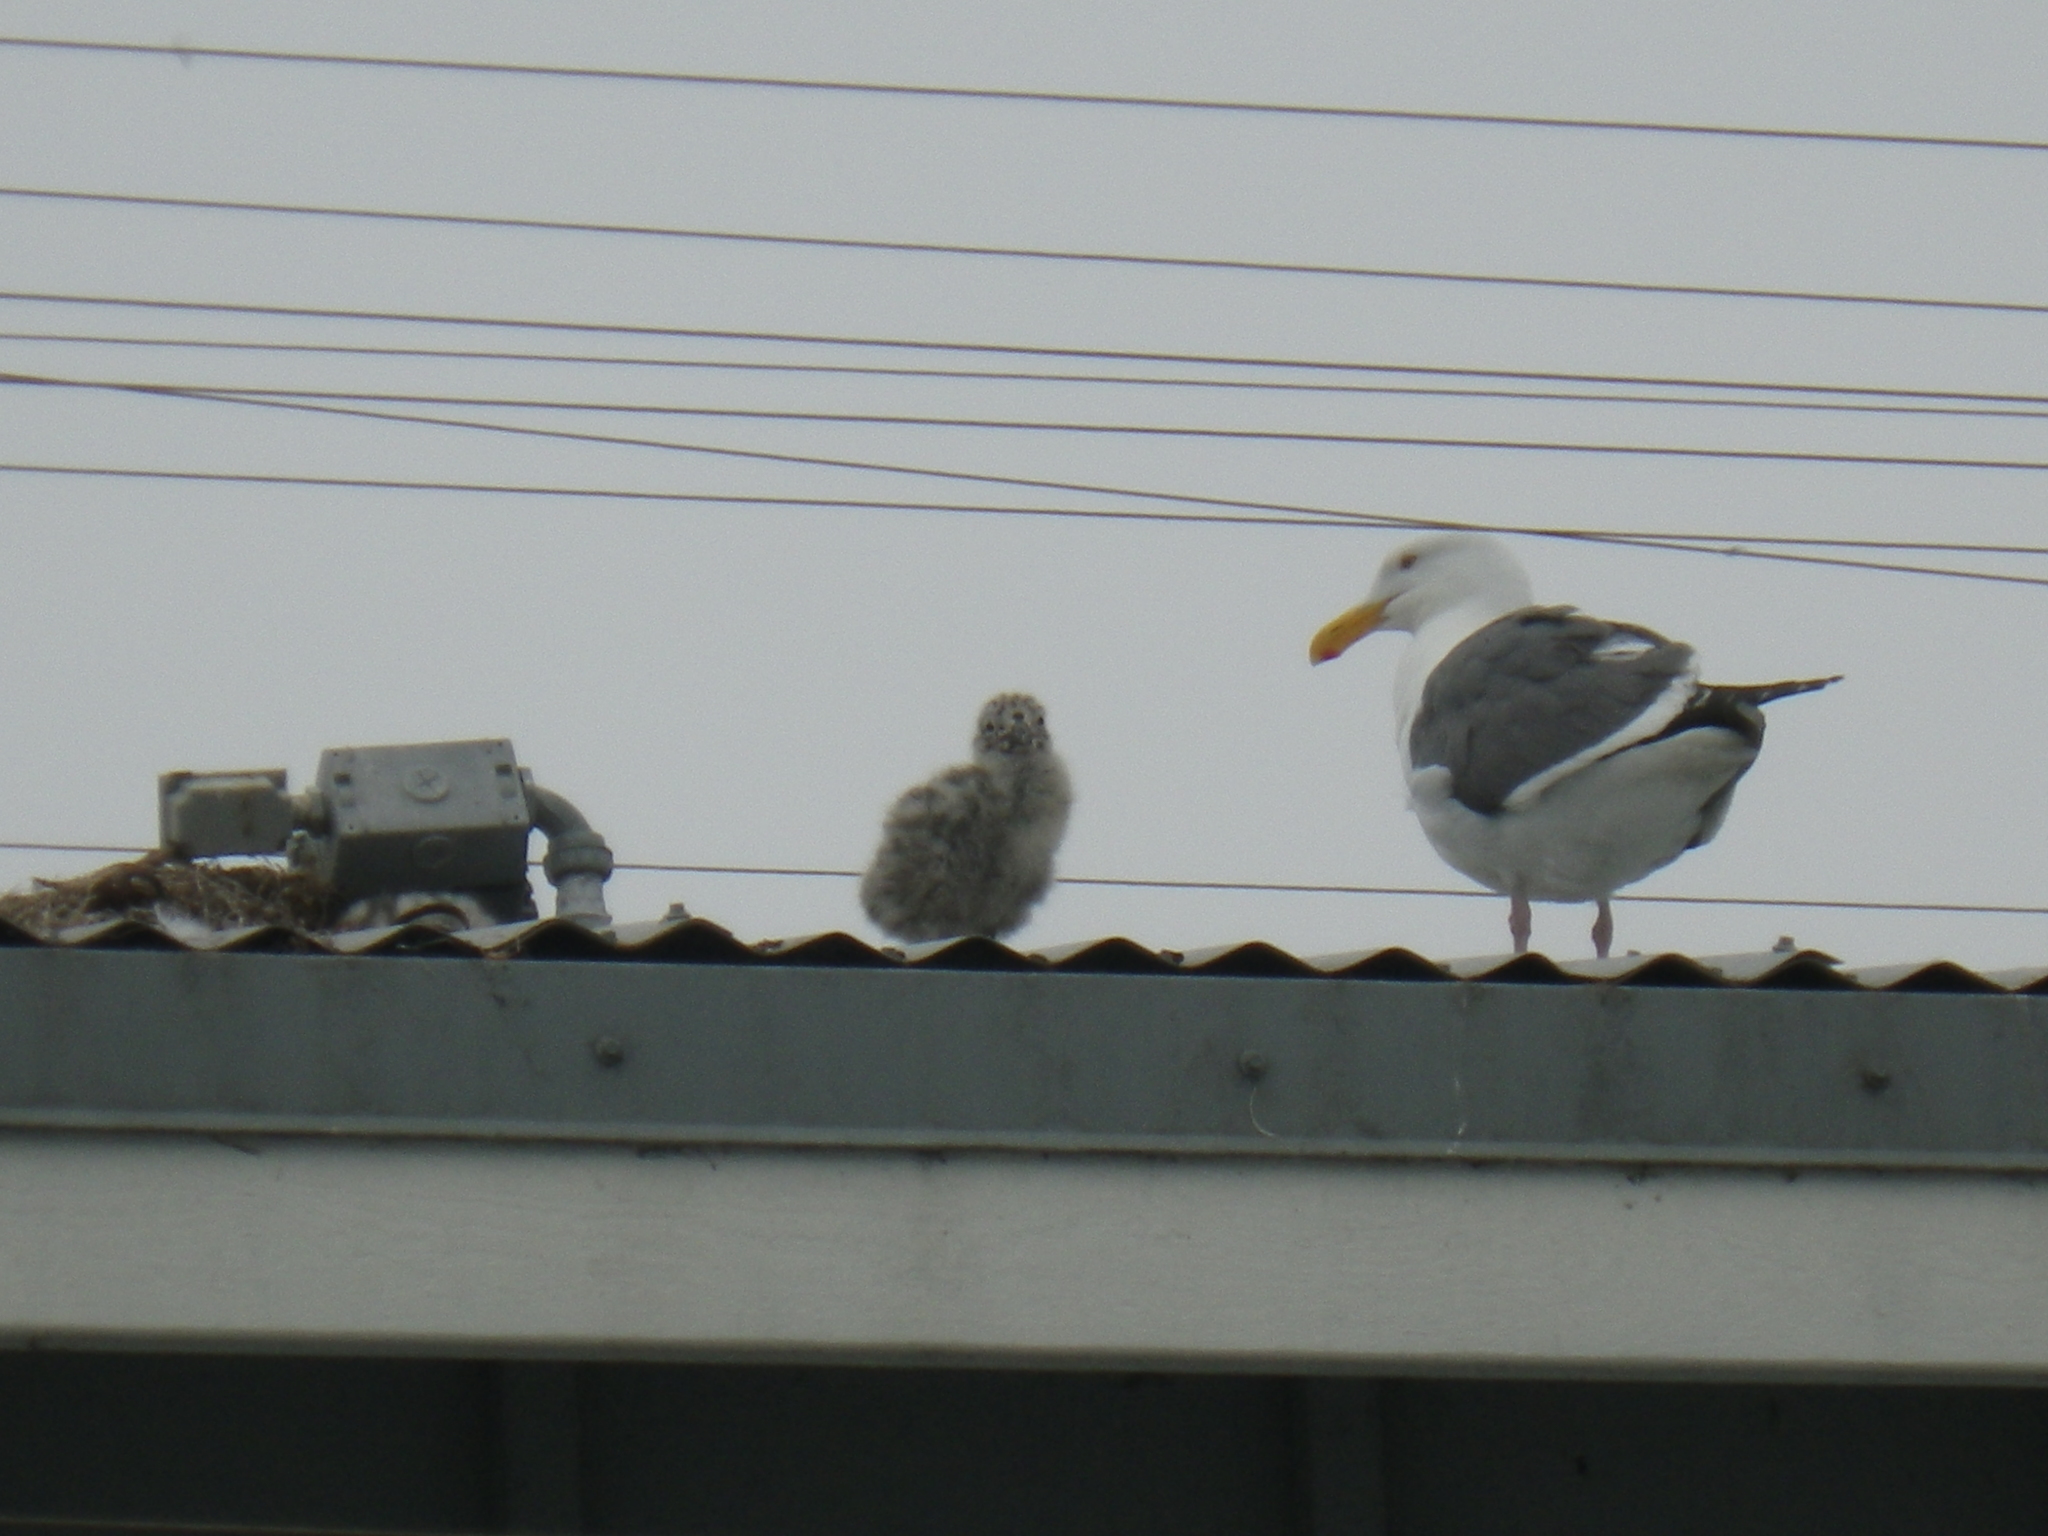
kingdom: Animalia
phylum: Chordata
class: Aves
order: Charadriiformes
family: Laridae
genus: Larus
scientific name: Larus occidentalis
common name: Western gull
